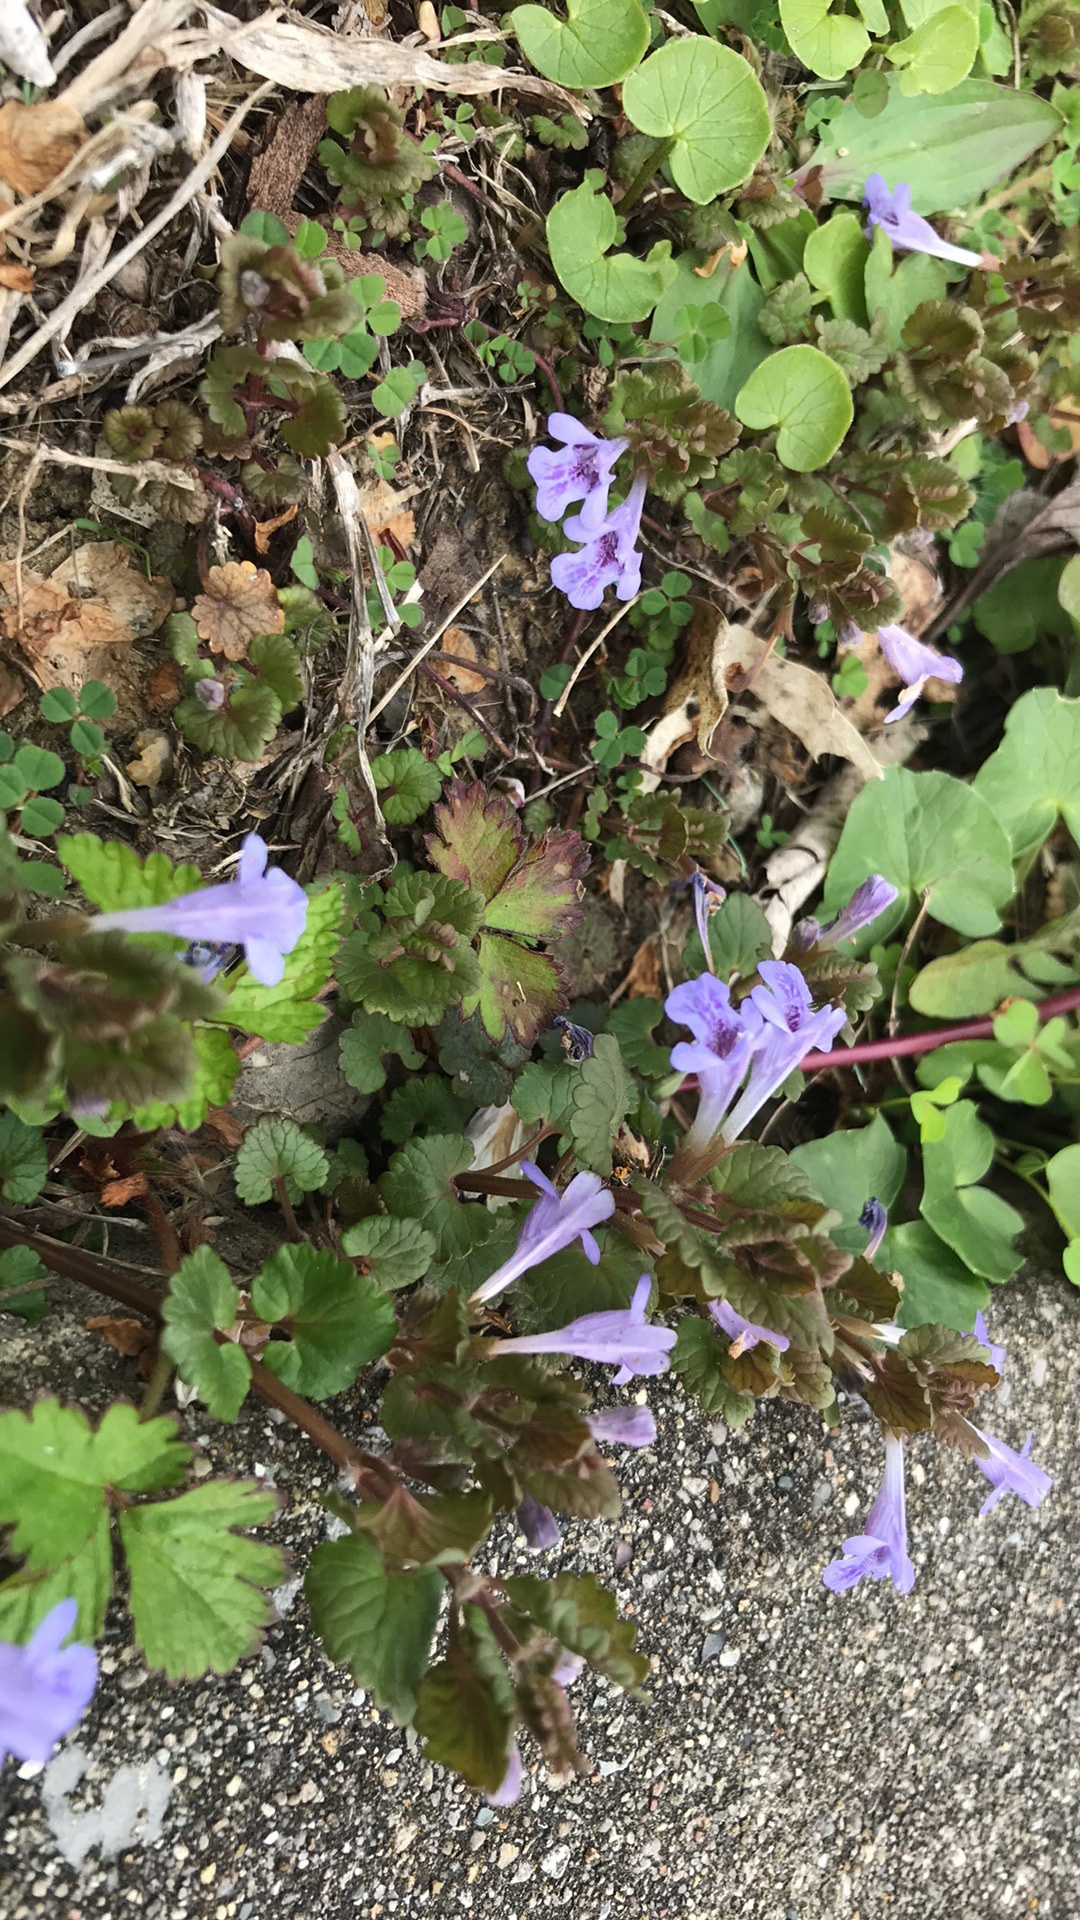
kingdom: Plantae
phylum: Tracheophyta
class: Magnoliopsida
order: Lamiales
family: Lamiaceae
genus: Glechoma
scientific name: Glechoma hederacea
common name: Ground ivy
